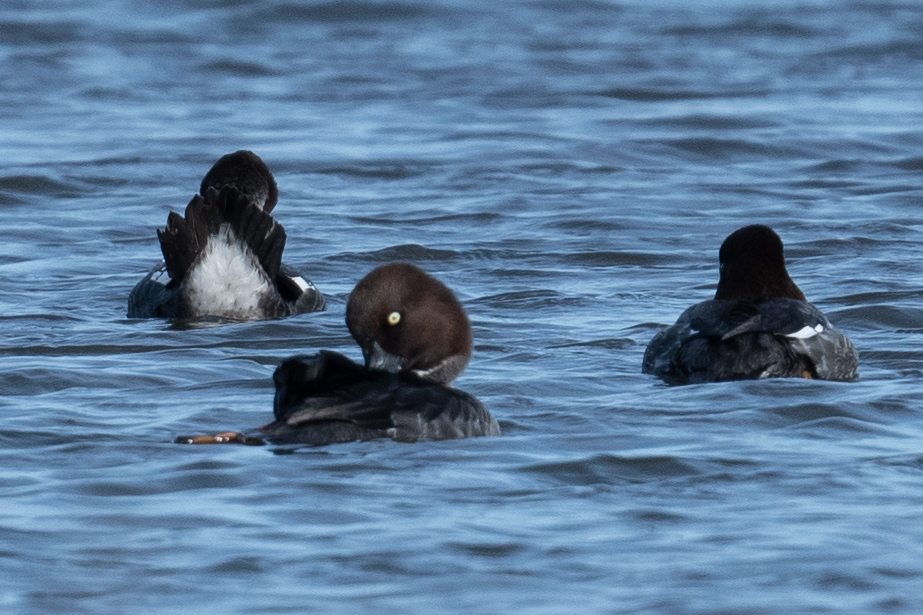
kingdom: Animalia
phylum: Chordata
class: Aves
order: Anseriformes
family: Anatidae
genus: Bucephala
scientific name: Bucephala clangula
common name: Common goldeneye
